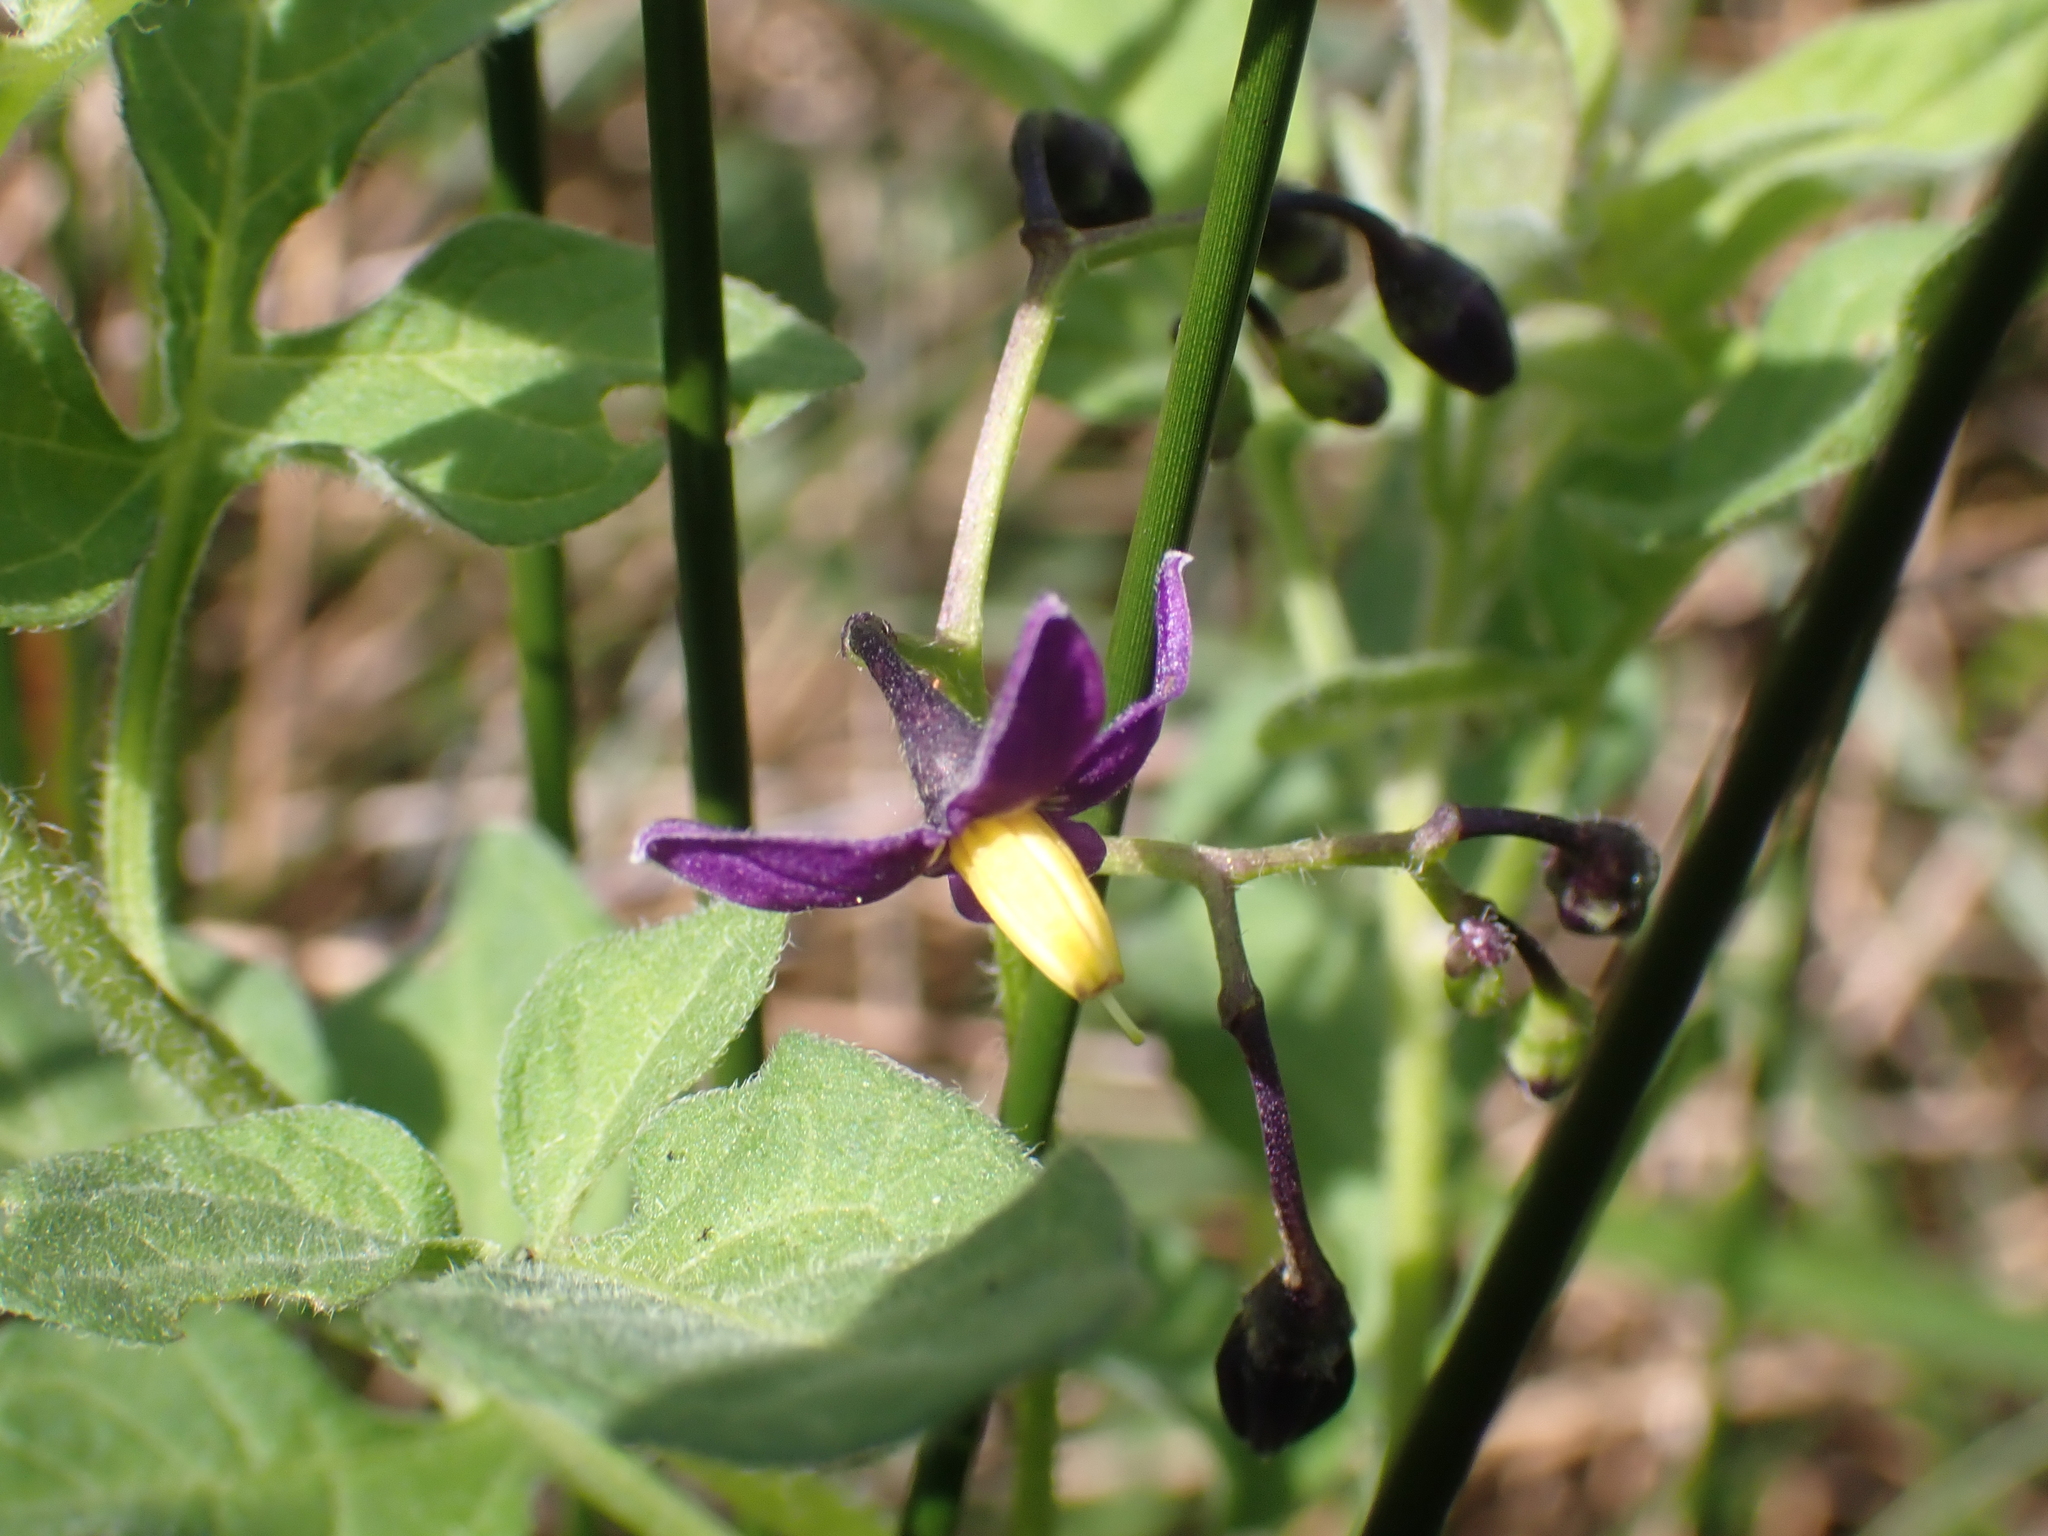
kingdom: Plantae
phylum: Tracheophyta
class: Magnoliopsida
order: Solanales
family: Solanaceae
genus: Solanum
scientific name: Solanum dulcamara
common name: Climbing nightshade
